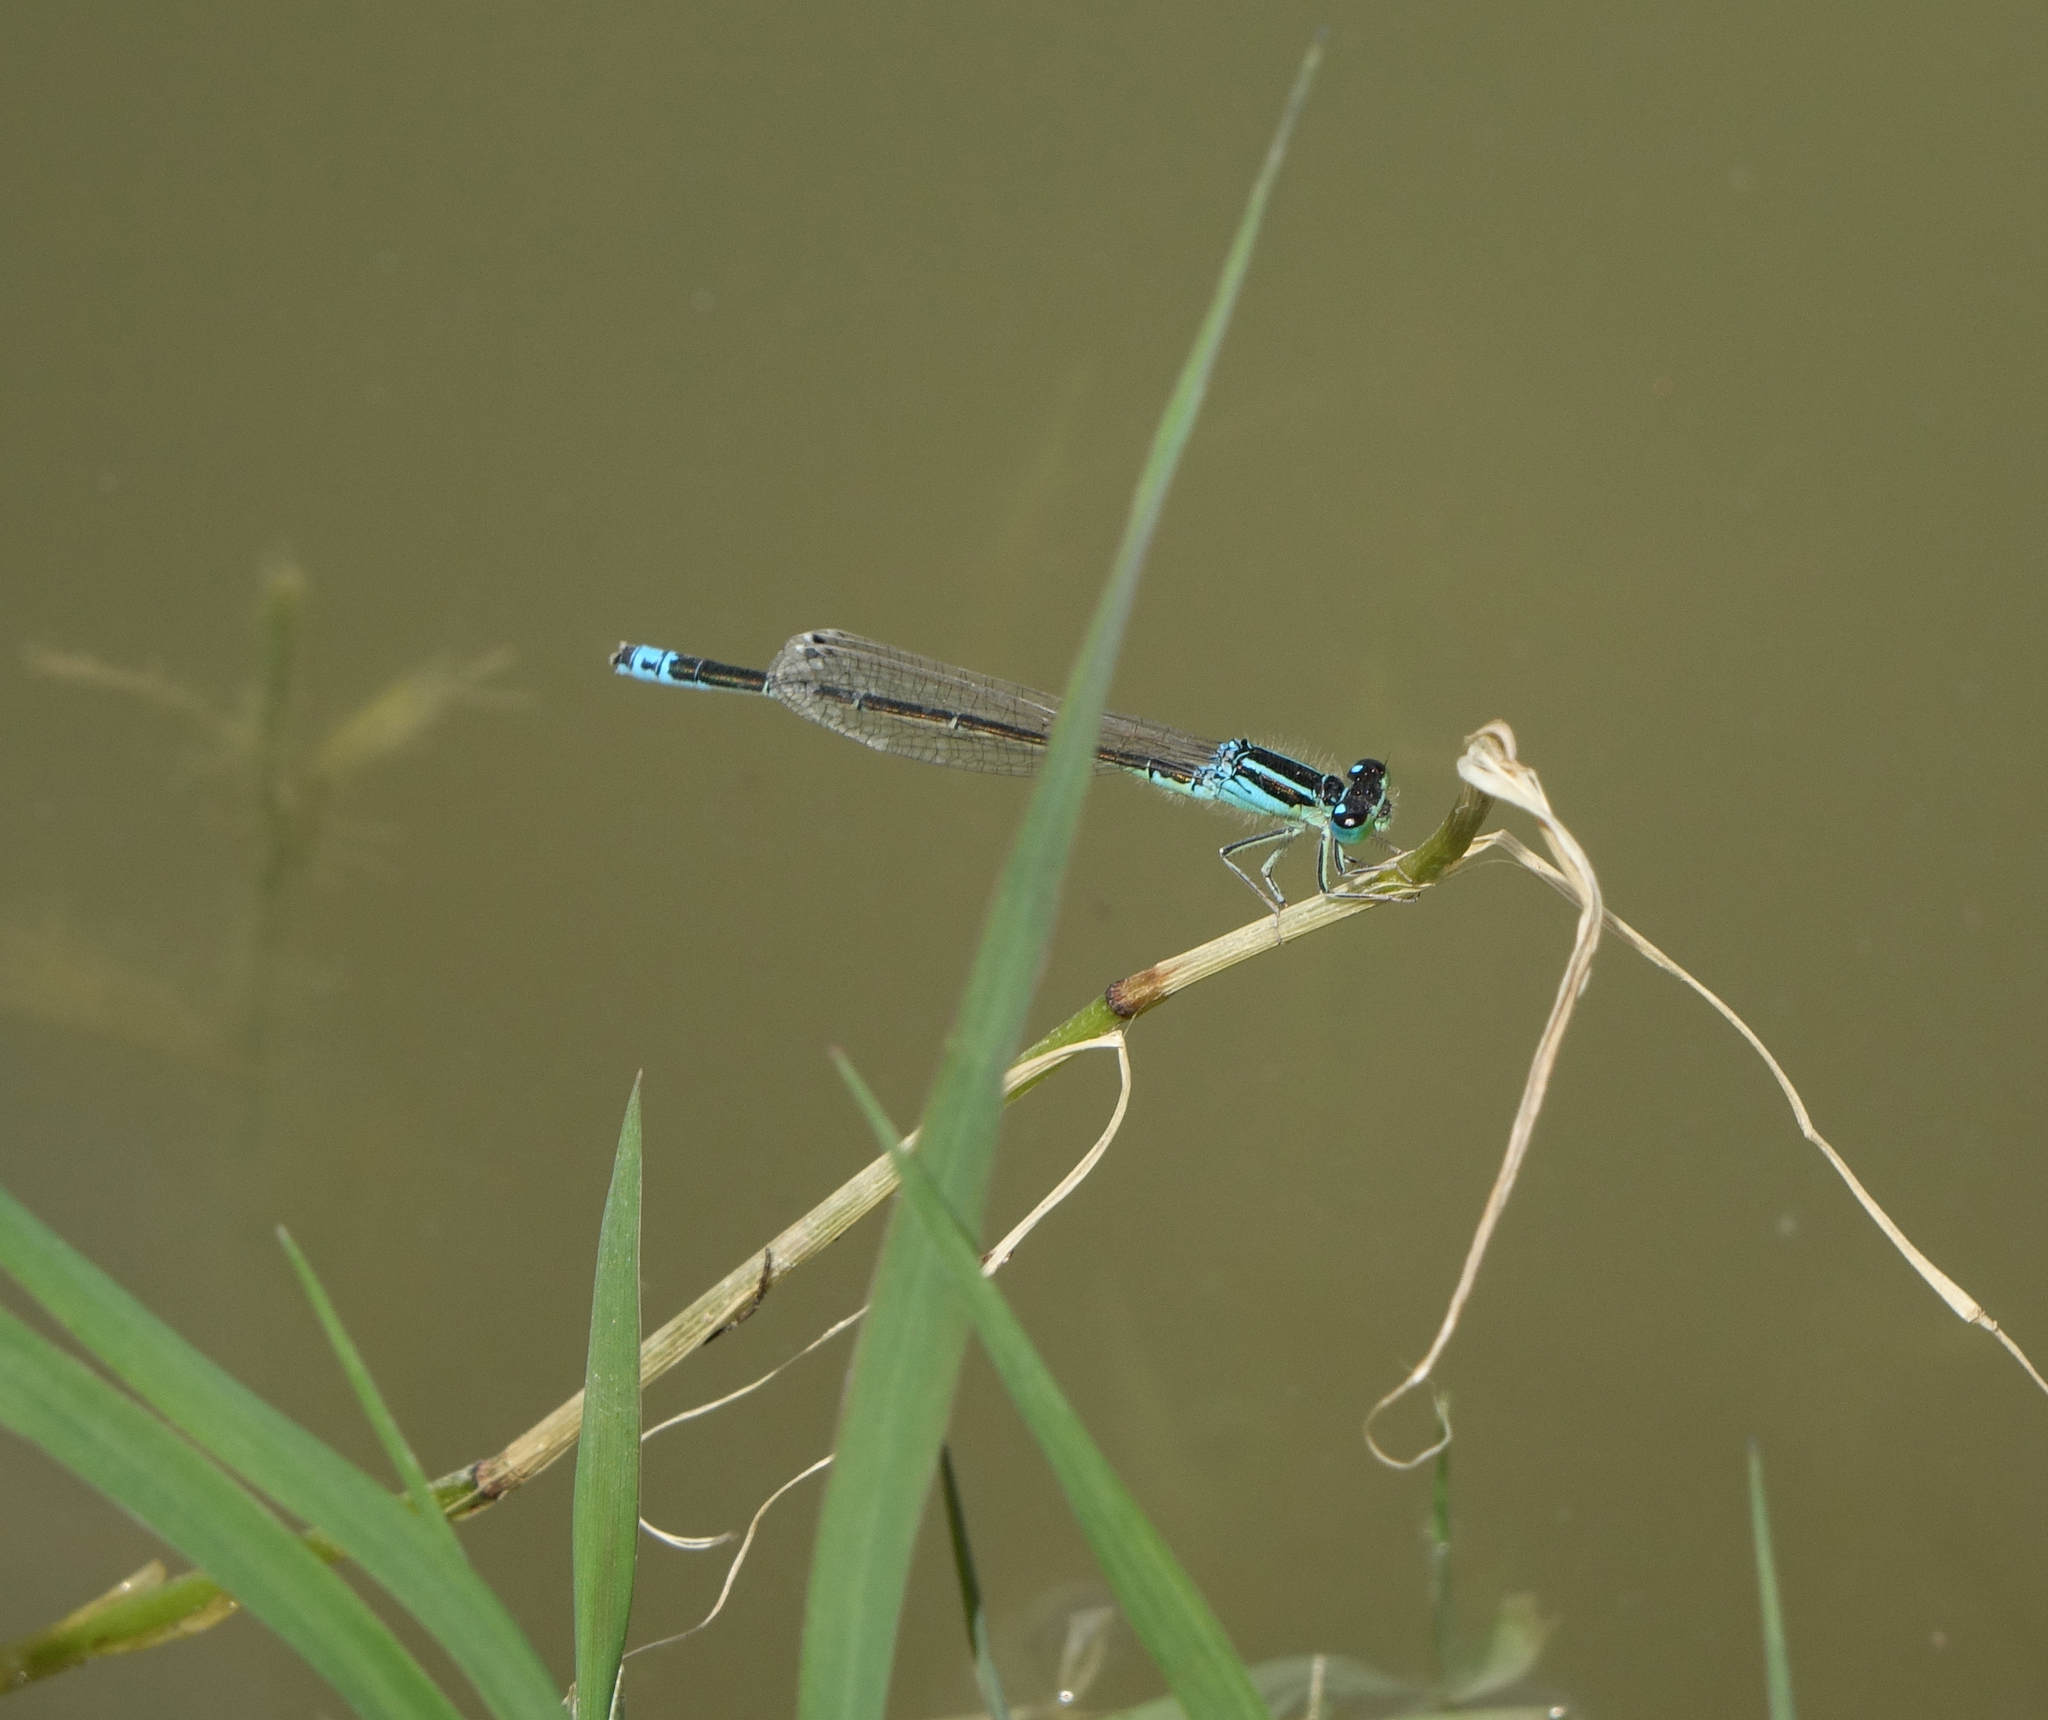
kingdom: Animalia
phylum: Arthropoda
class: Insecta
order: Odonata
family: Coenagrionidae
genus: Ischnura
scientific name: Ischnura pumilio
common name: Scarce blue-tailed damselfly
